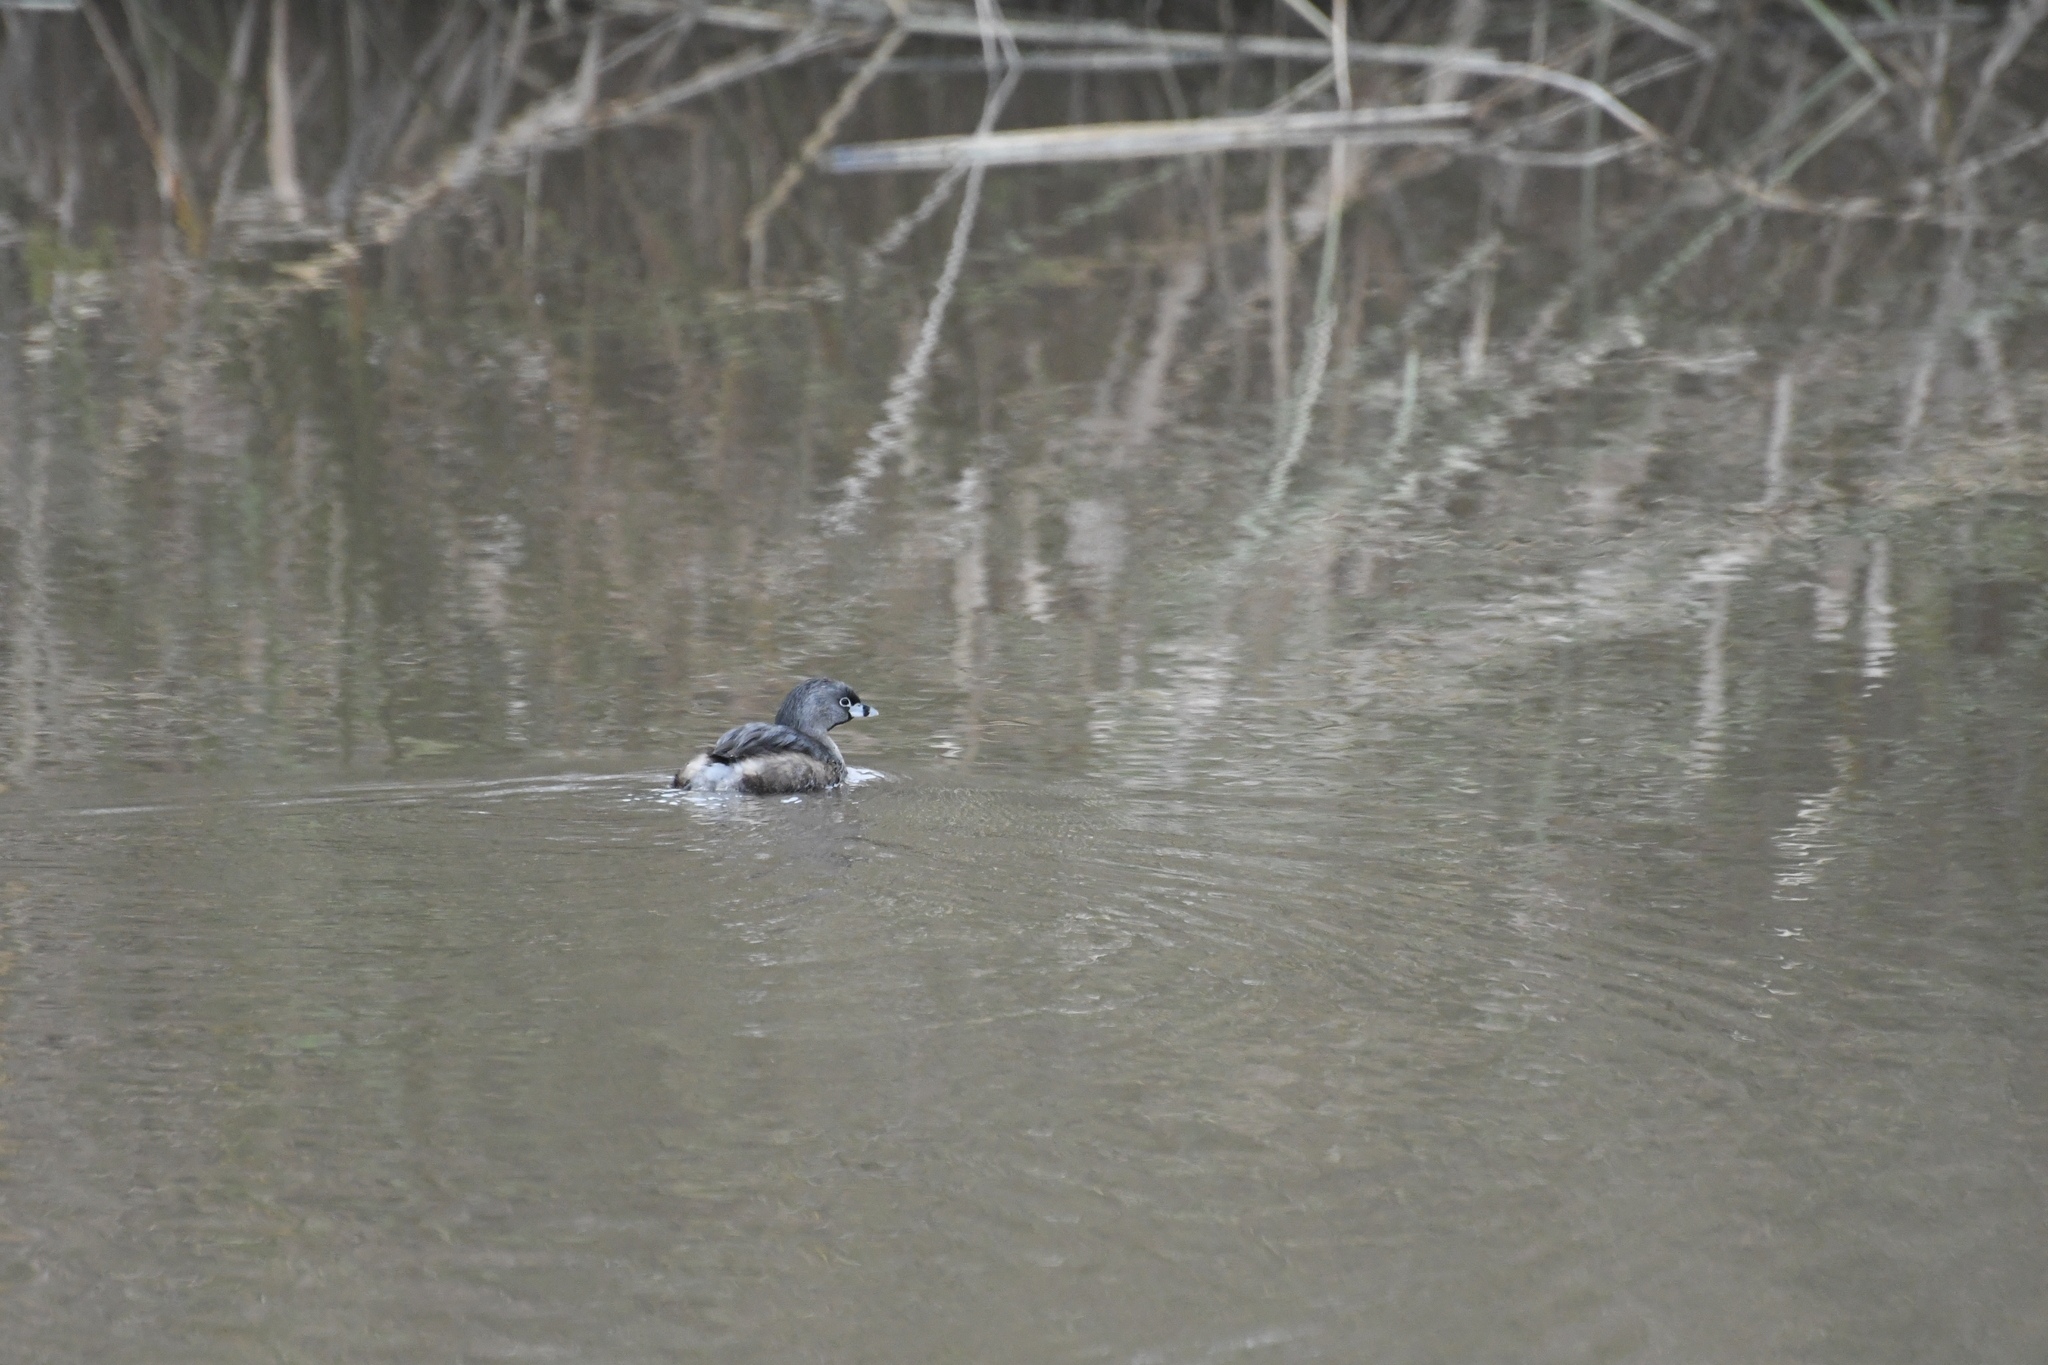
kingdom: Animalia
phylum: Chordata
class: Aves
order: Podicipediformes
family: Podicipedidae
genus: Podilymbus
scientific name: Podilymbus podiceps
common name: Pied-billed grebe
